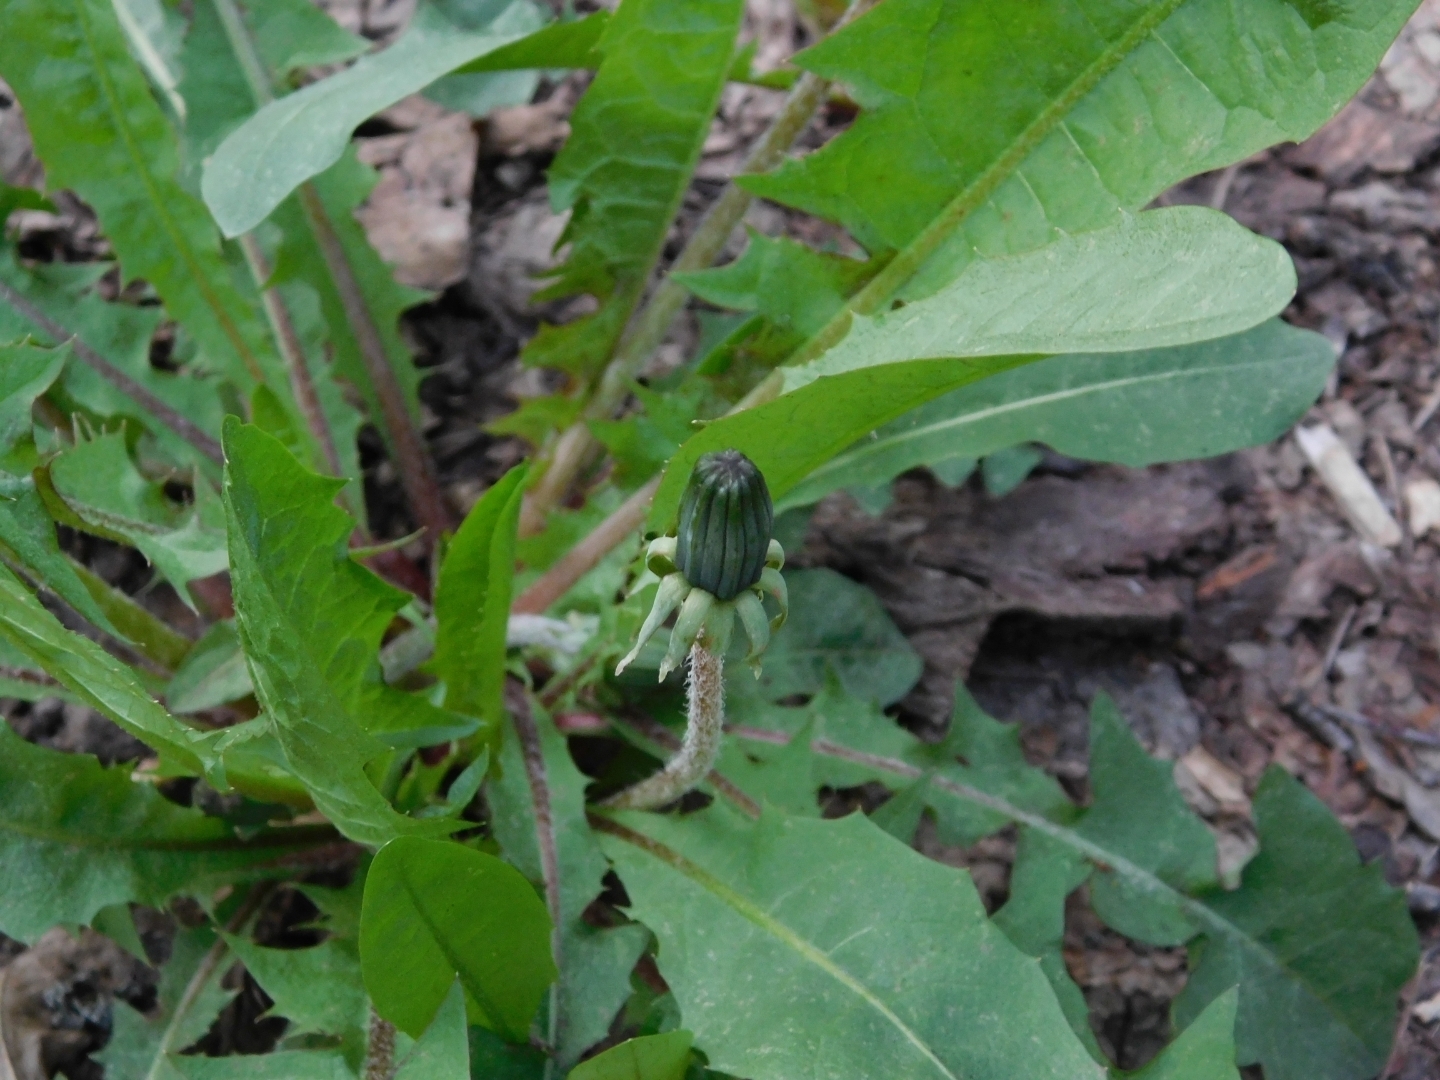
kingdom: Plantae
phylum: Tracheophyta
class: Magnoliopsida
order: Asterales
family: Asteraceae
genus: Taraxacum
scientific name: Taraxacum officinale
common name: Common dandelion
